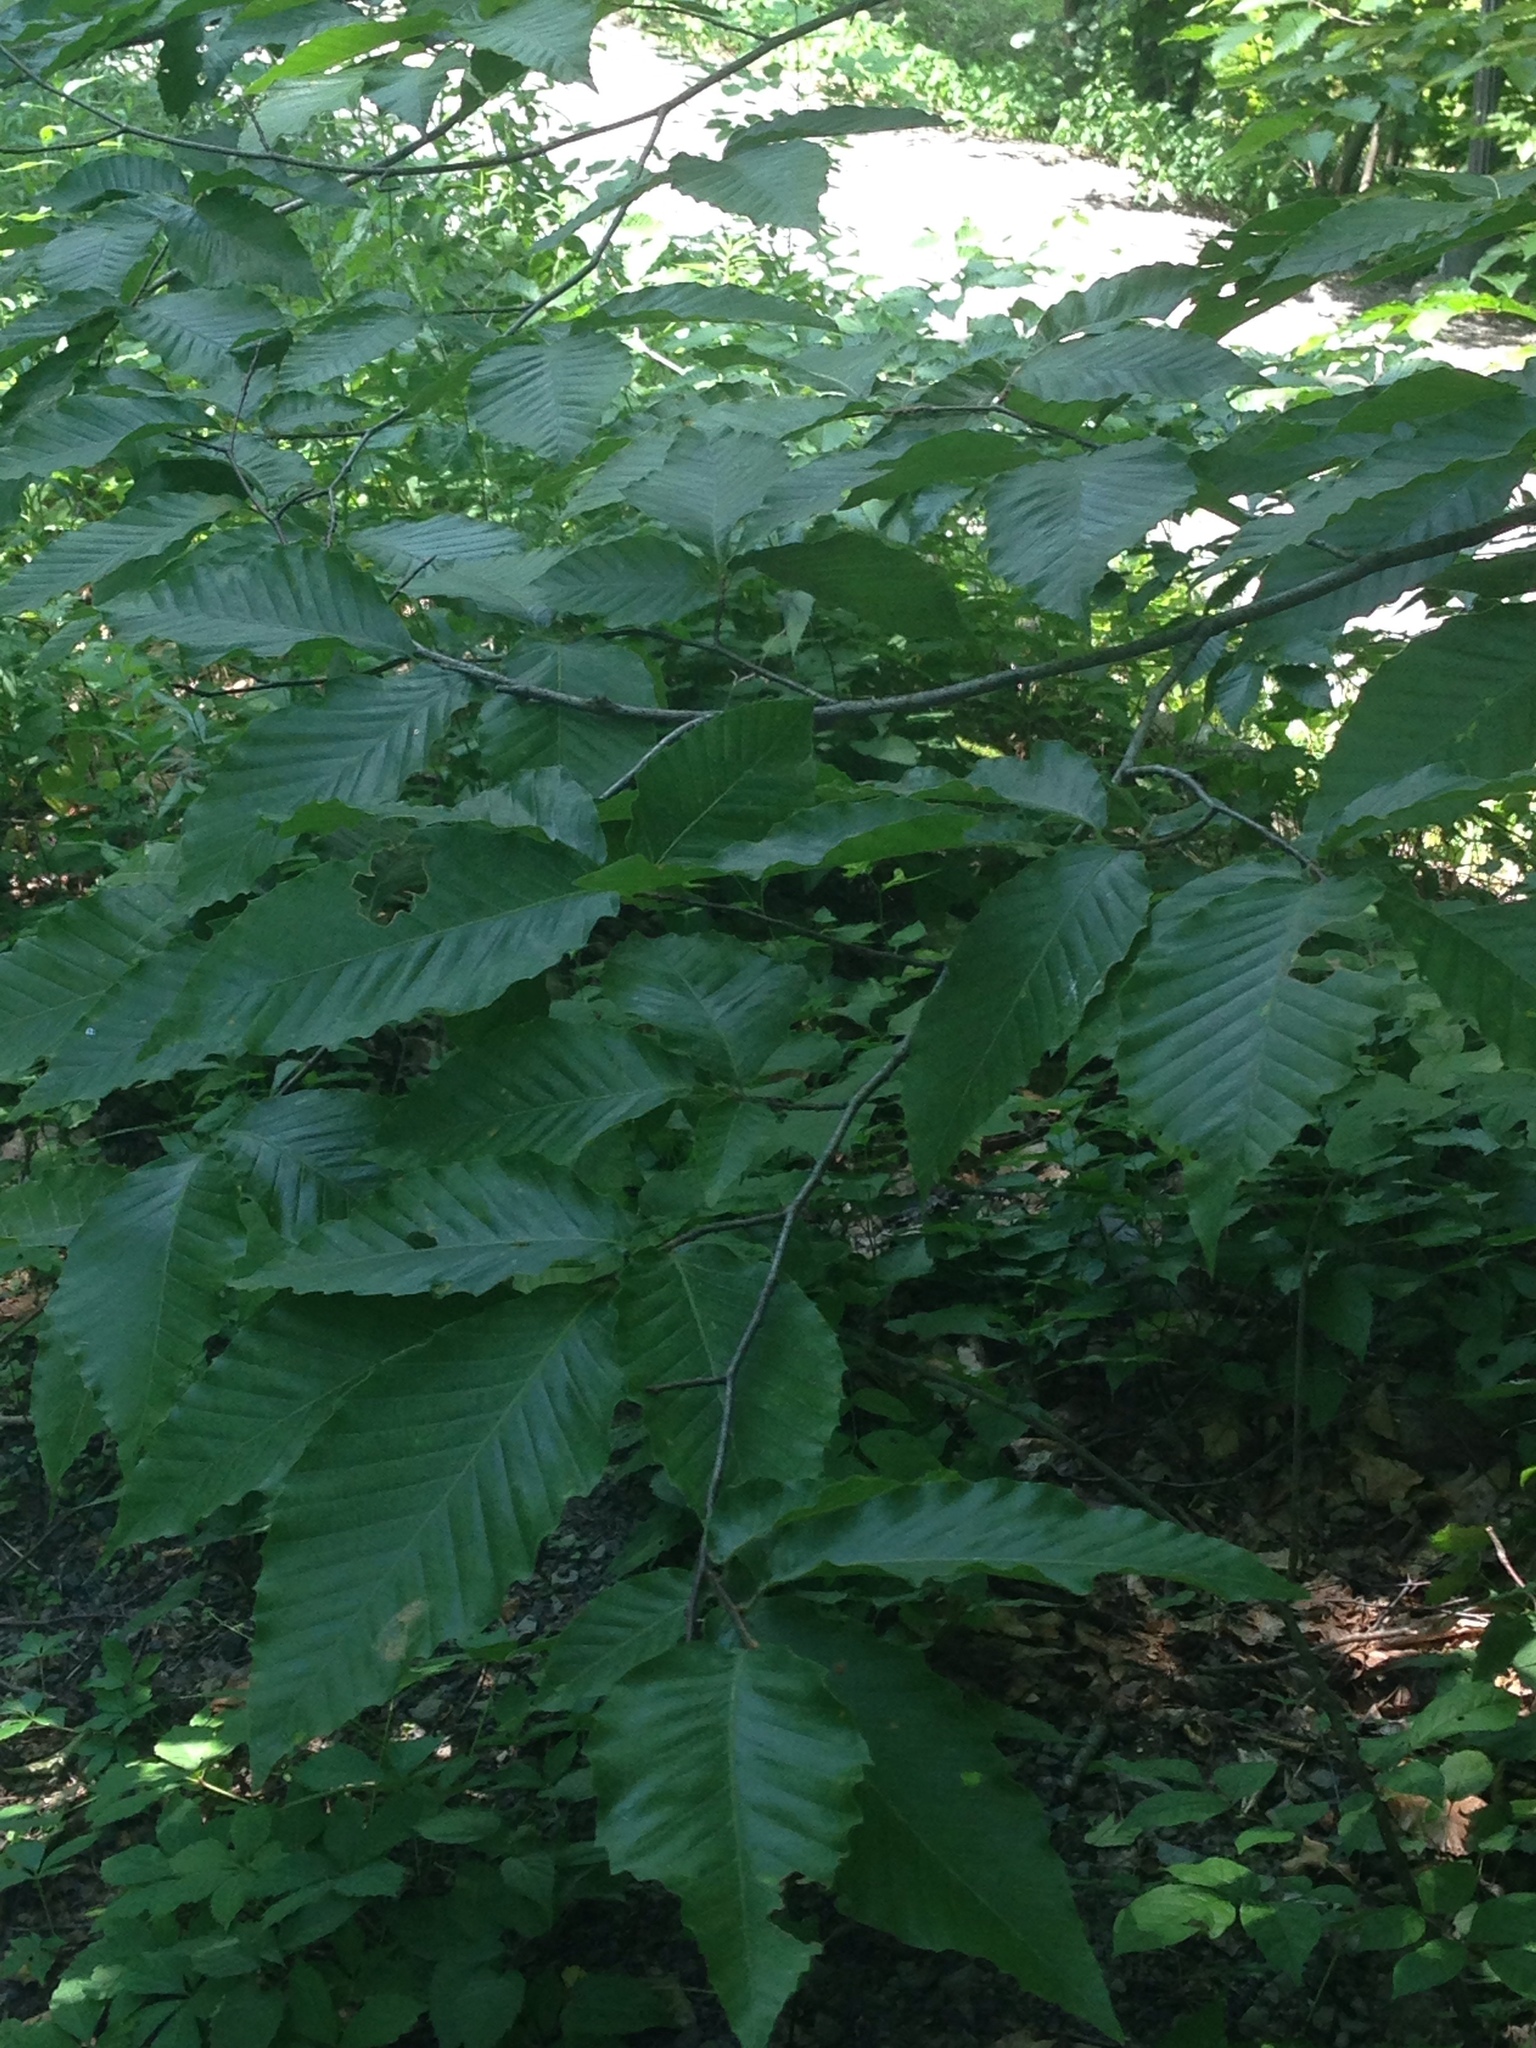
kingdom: Plantae
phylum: Tracheophyta
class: Magnoliopsida
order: Fagales
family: Fagaceae
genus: Fagus
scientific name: Fagus grandifolia
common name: American beech
